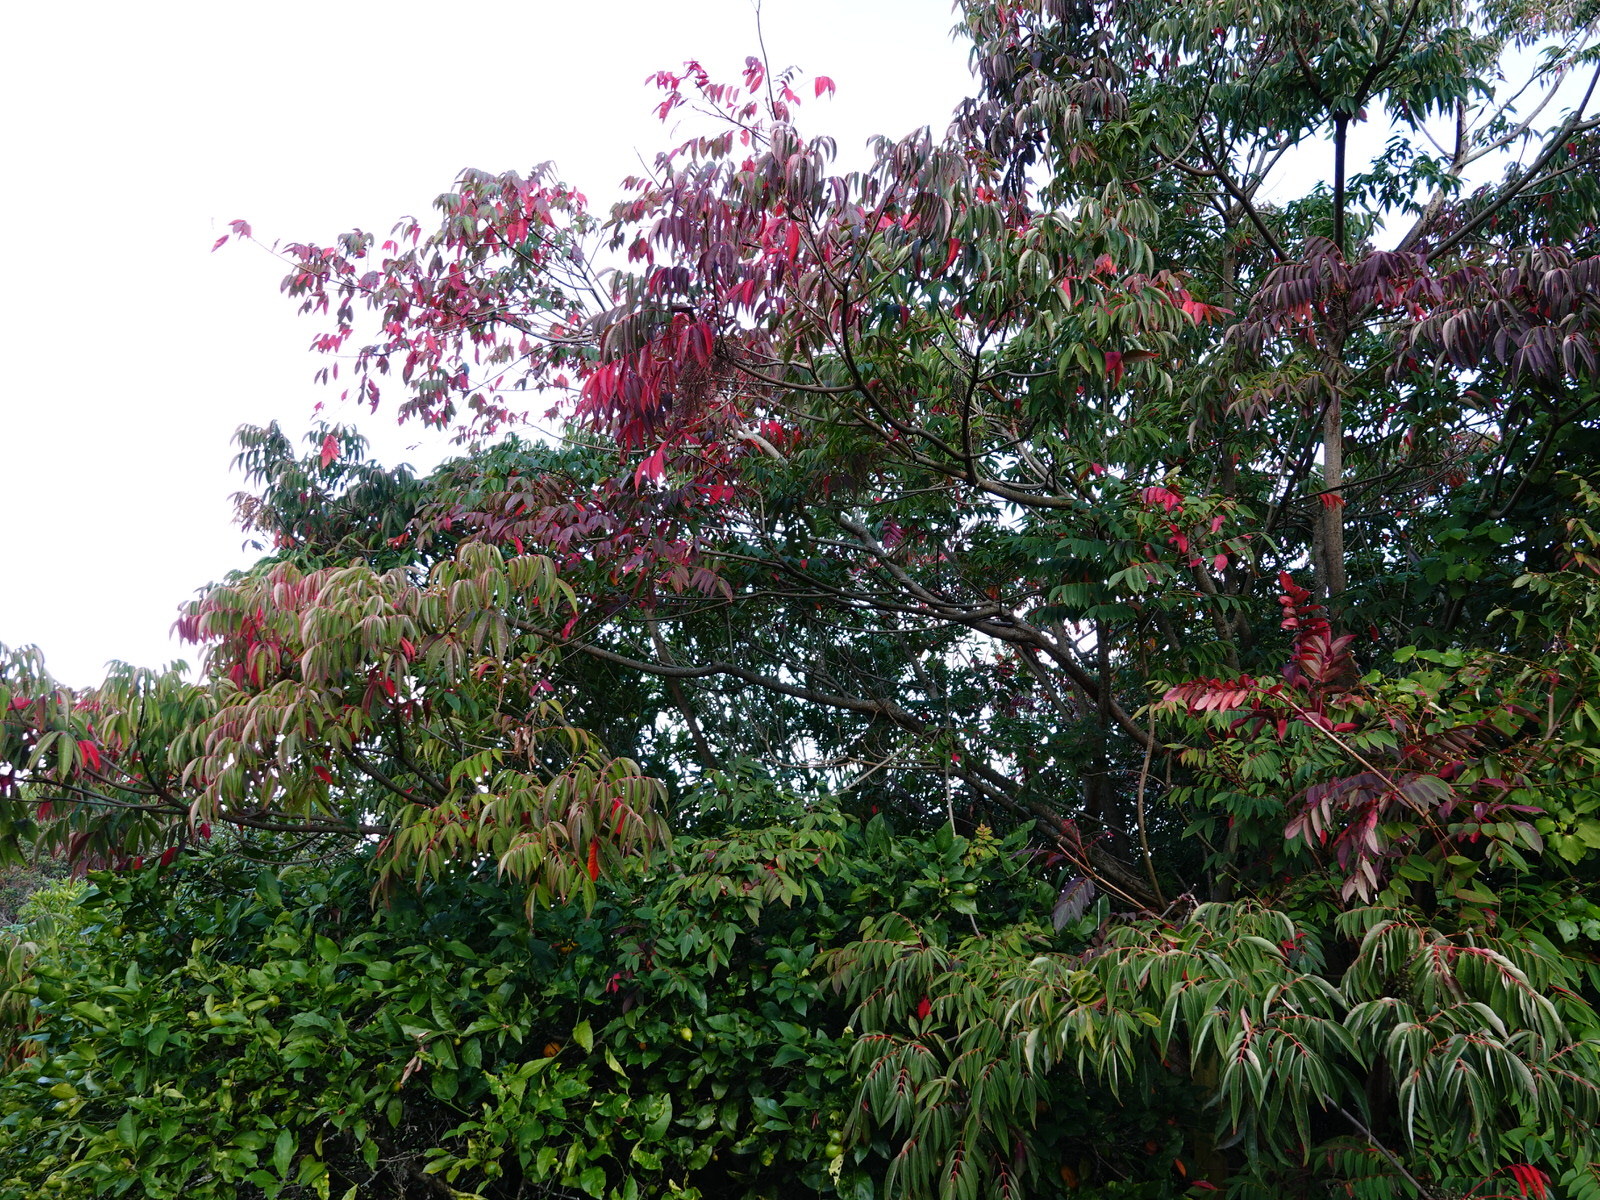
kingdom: Plantae
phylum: Tracheophyta
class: Magnoliopsida
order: Sapindales
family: Anacardiaceae
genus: Toxicodendron
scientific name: Toxicodendron succedaneum
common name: Wax tree
